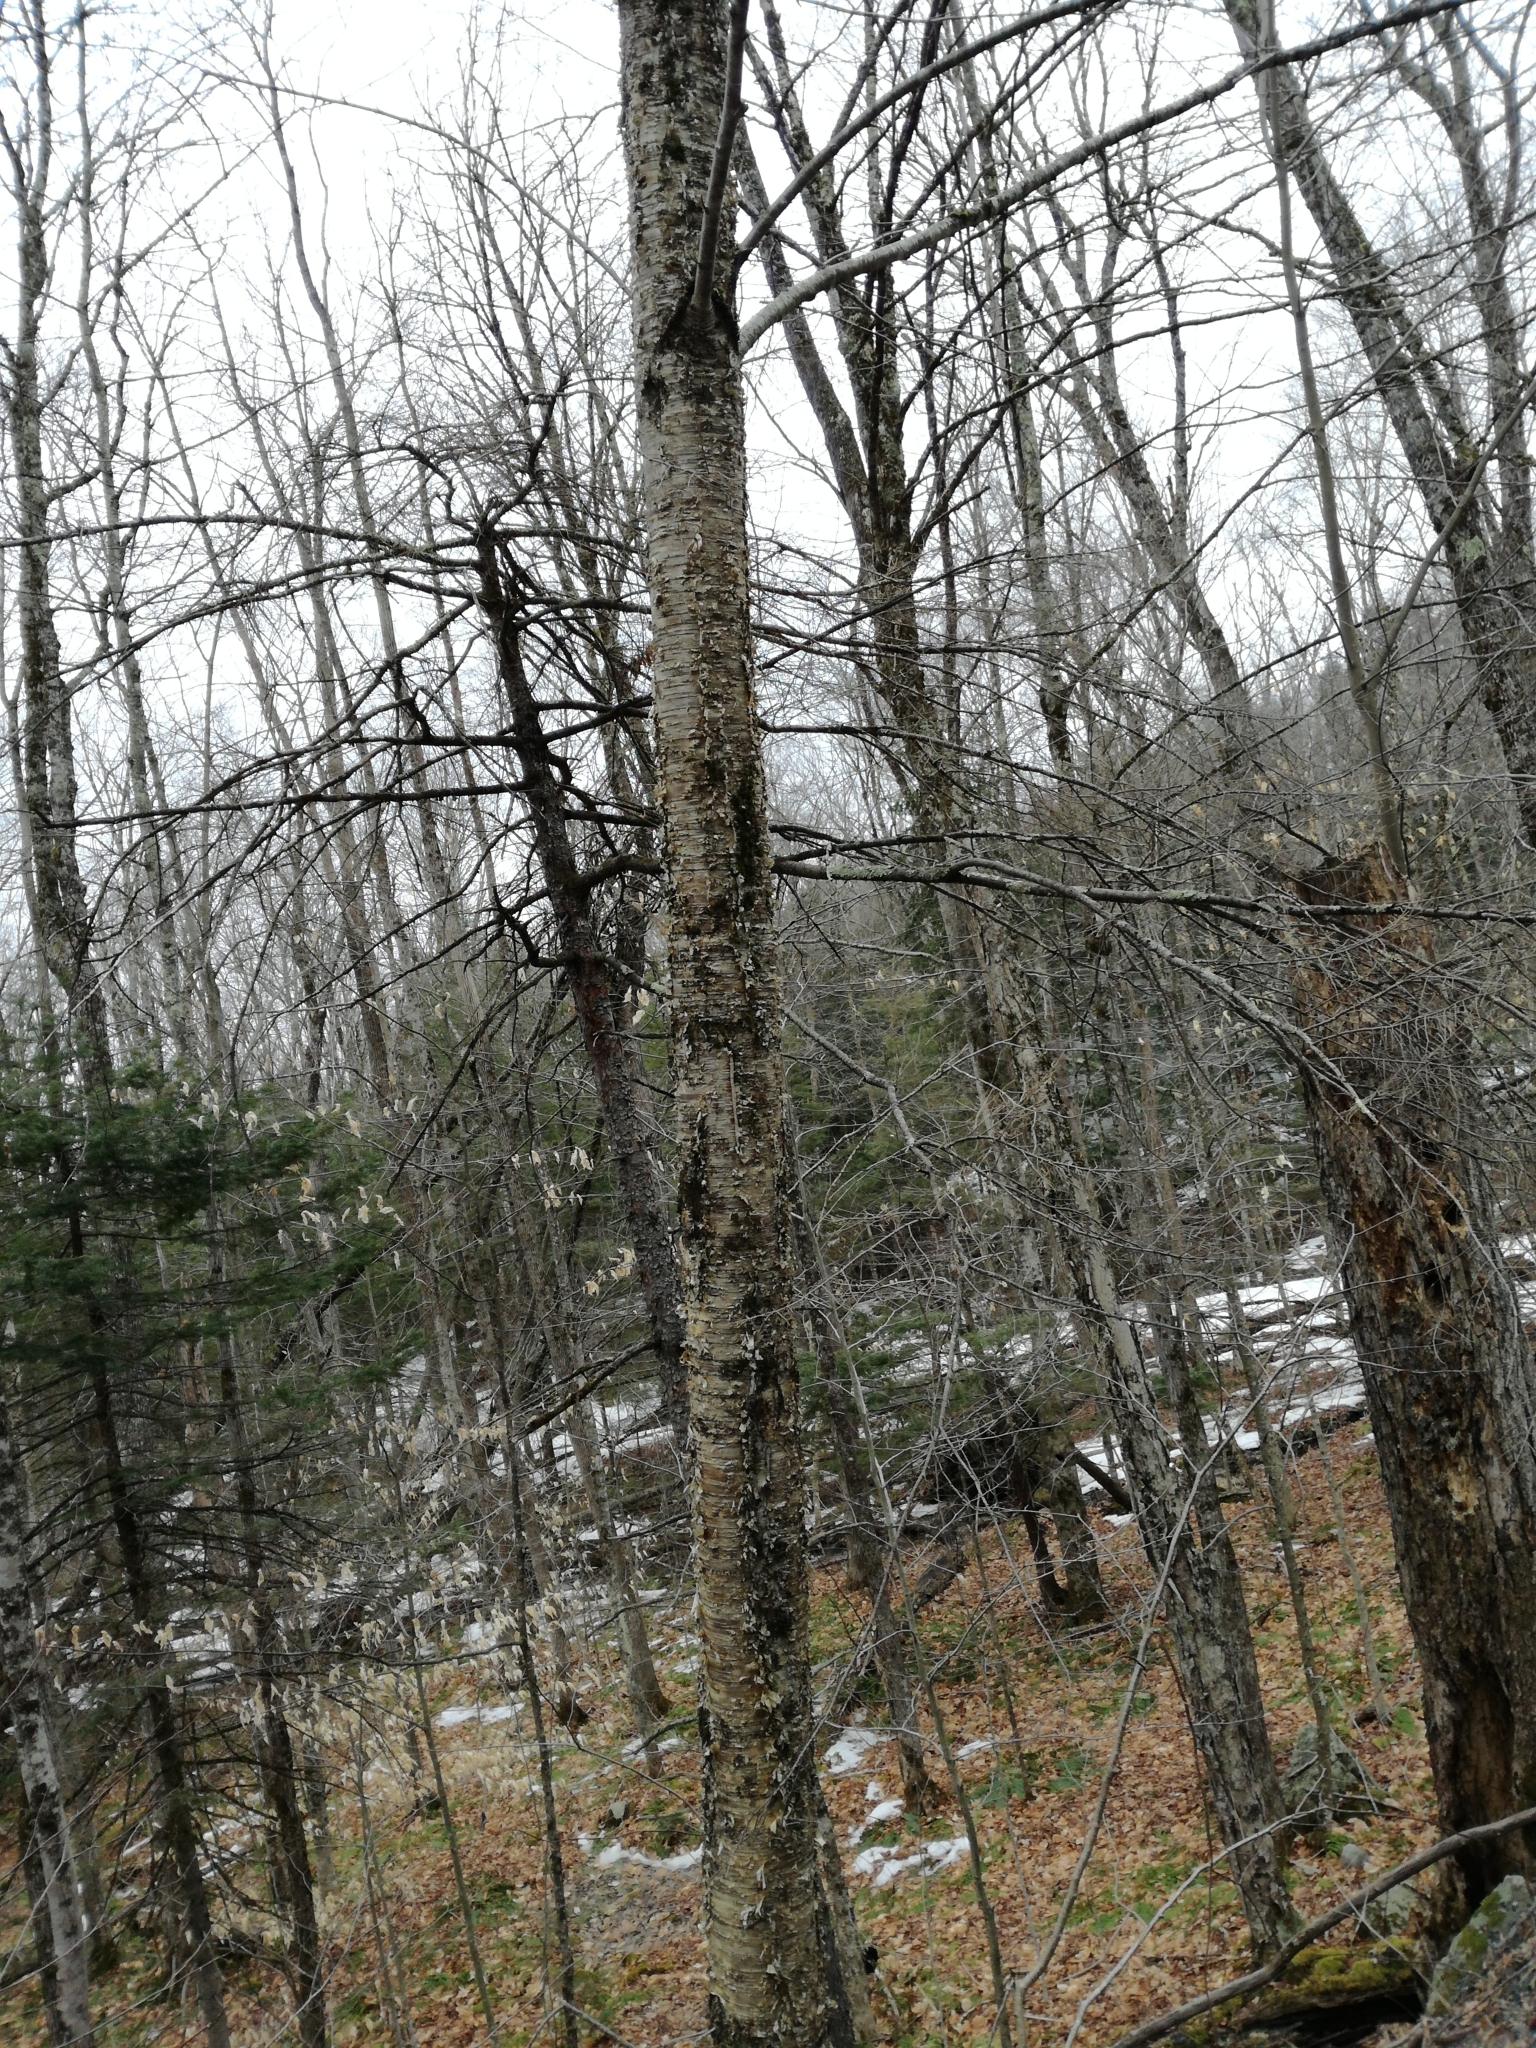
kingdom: Plantae
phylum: Tracheophyta
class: Magnoliopsida
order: Fagales
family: Betulaceae
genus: Betula
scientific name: Betula alleghaniensis
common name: Yellow birch
